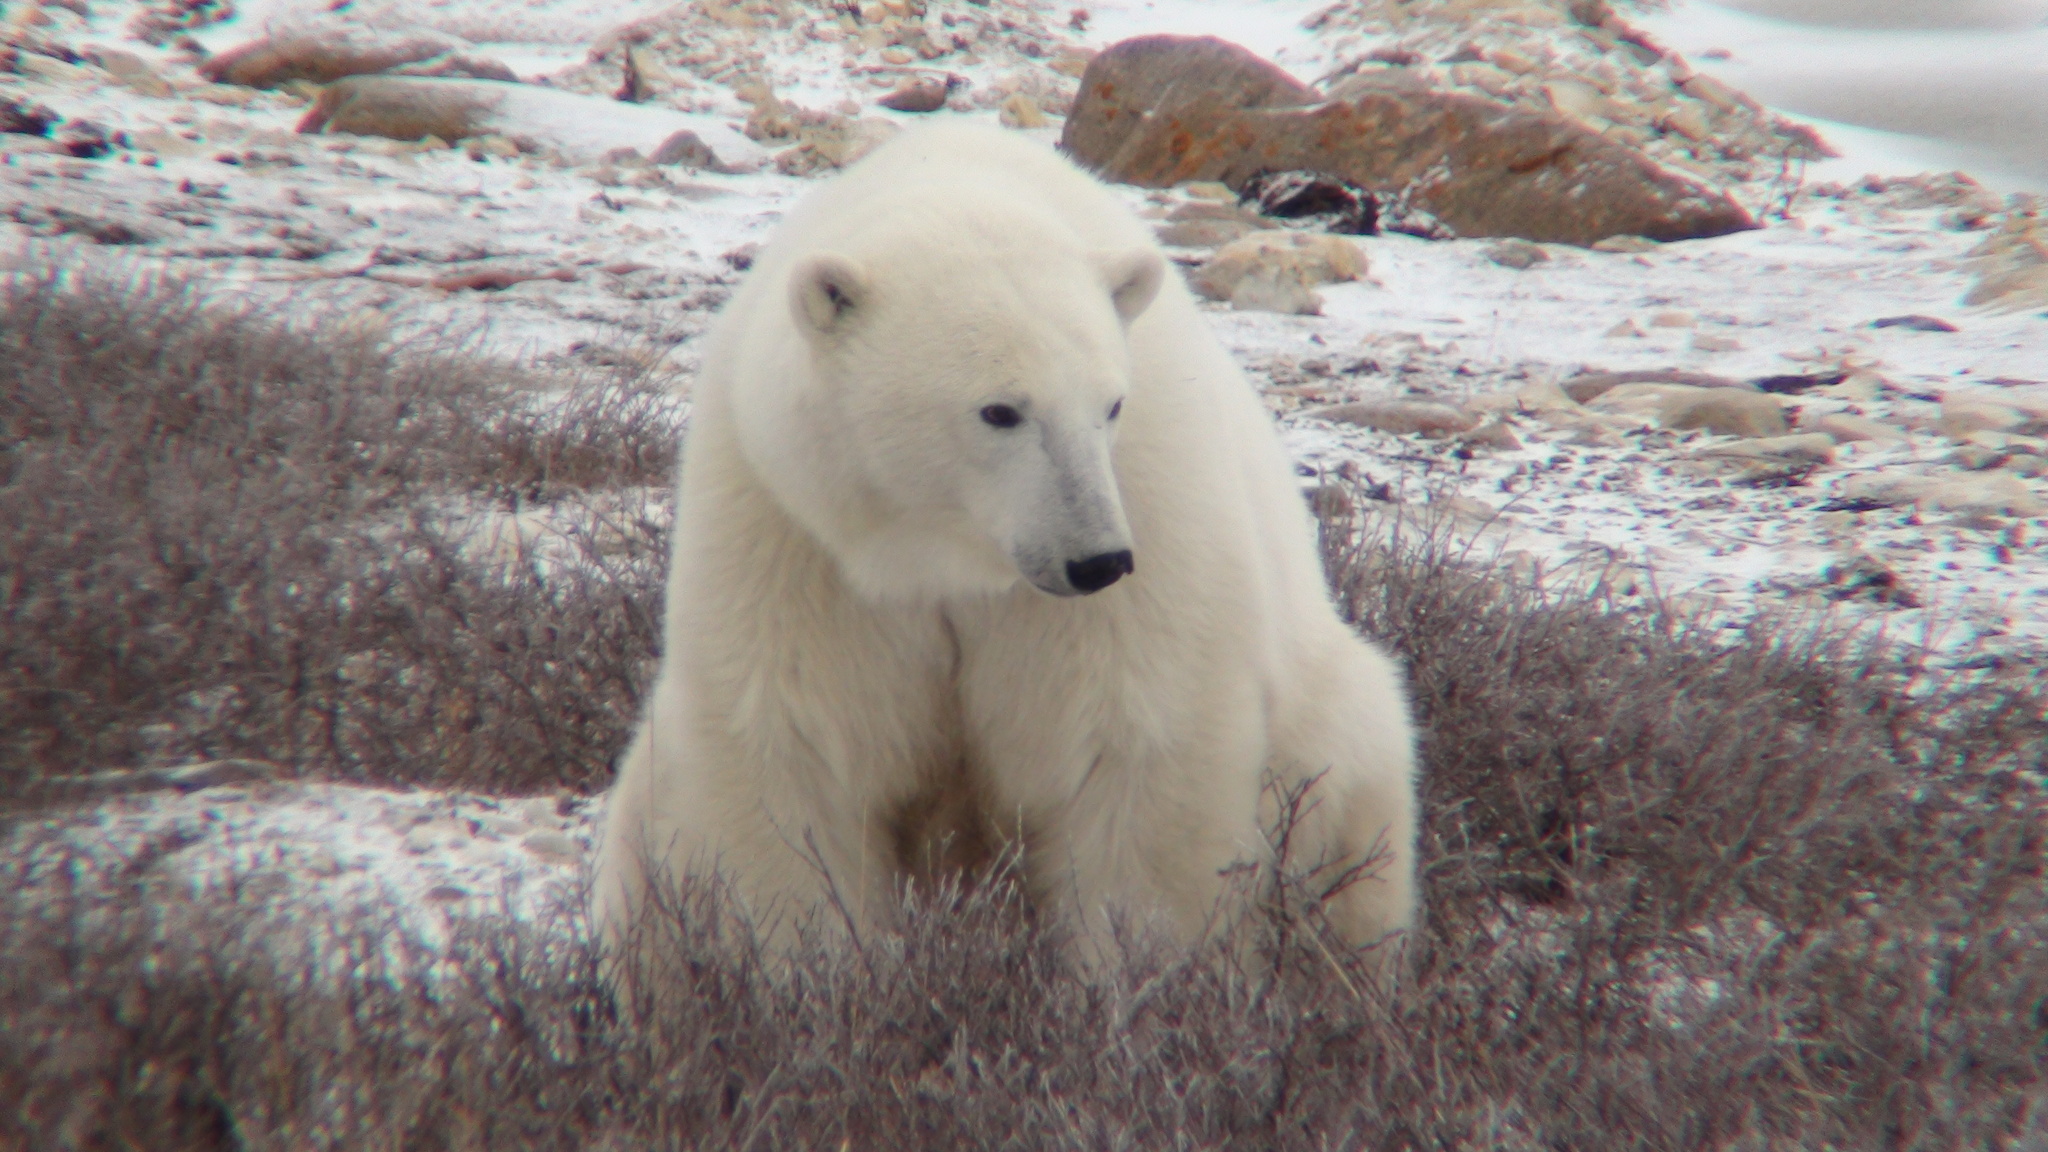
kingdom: Animalia
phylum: Chordata
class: Mammalia
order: Carnivora
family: Ursidae
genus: Ursus
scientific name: Ursus maritimus
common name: Polar bear
